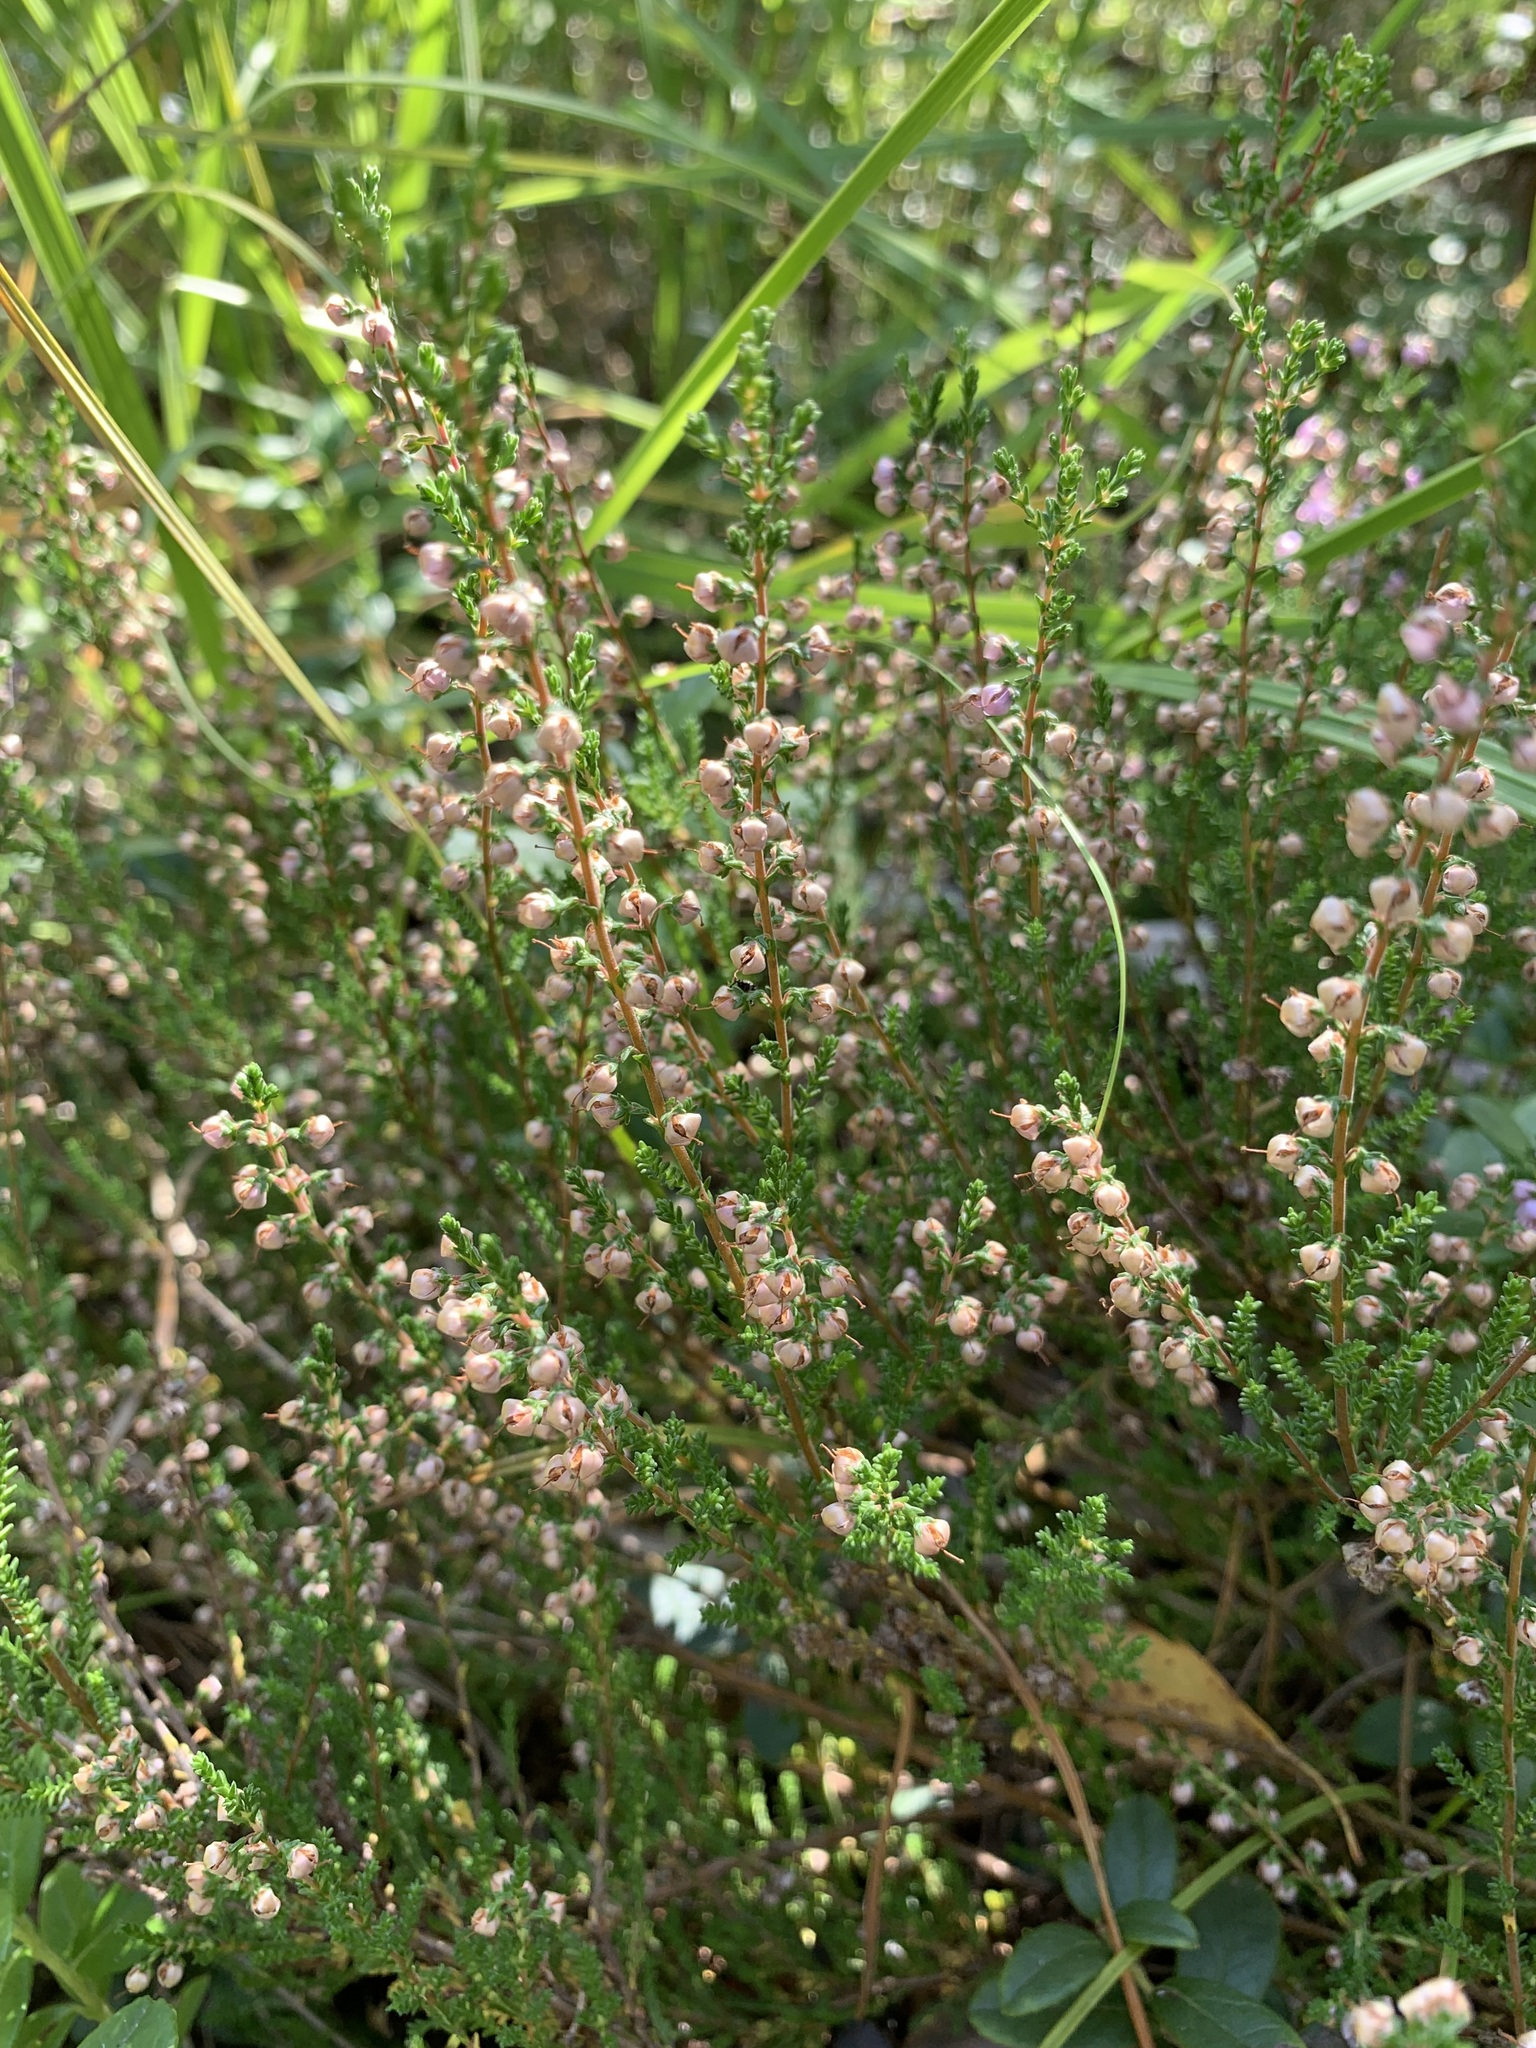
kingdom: Plantae
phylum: Tracheophyta
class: Magnoliopsida
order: Ericales
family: Ericaceae
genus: Calluna
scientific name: Calluna vulgaris
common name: Heather
